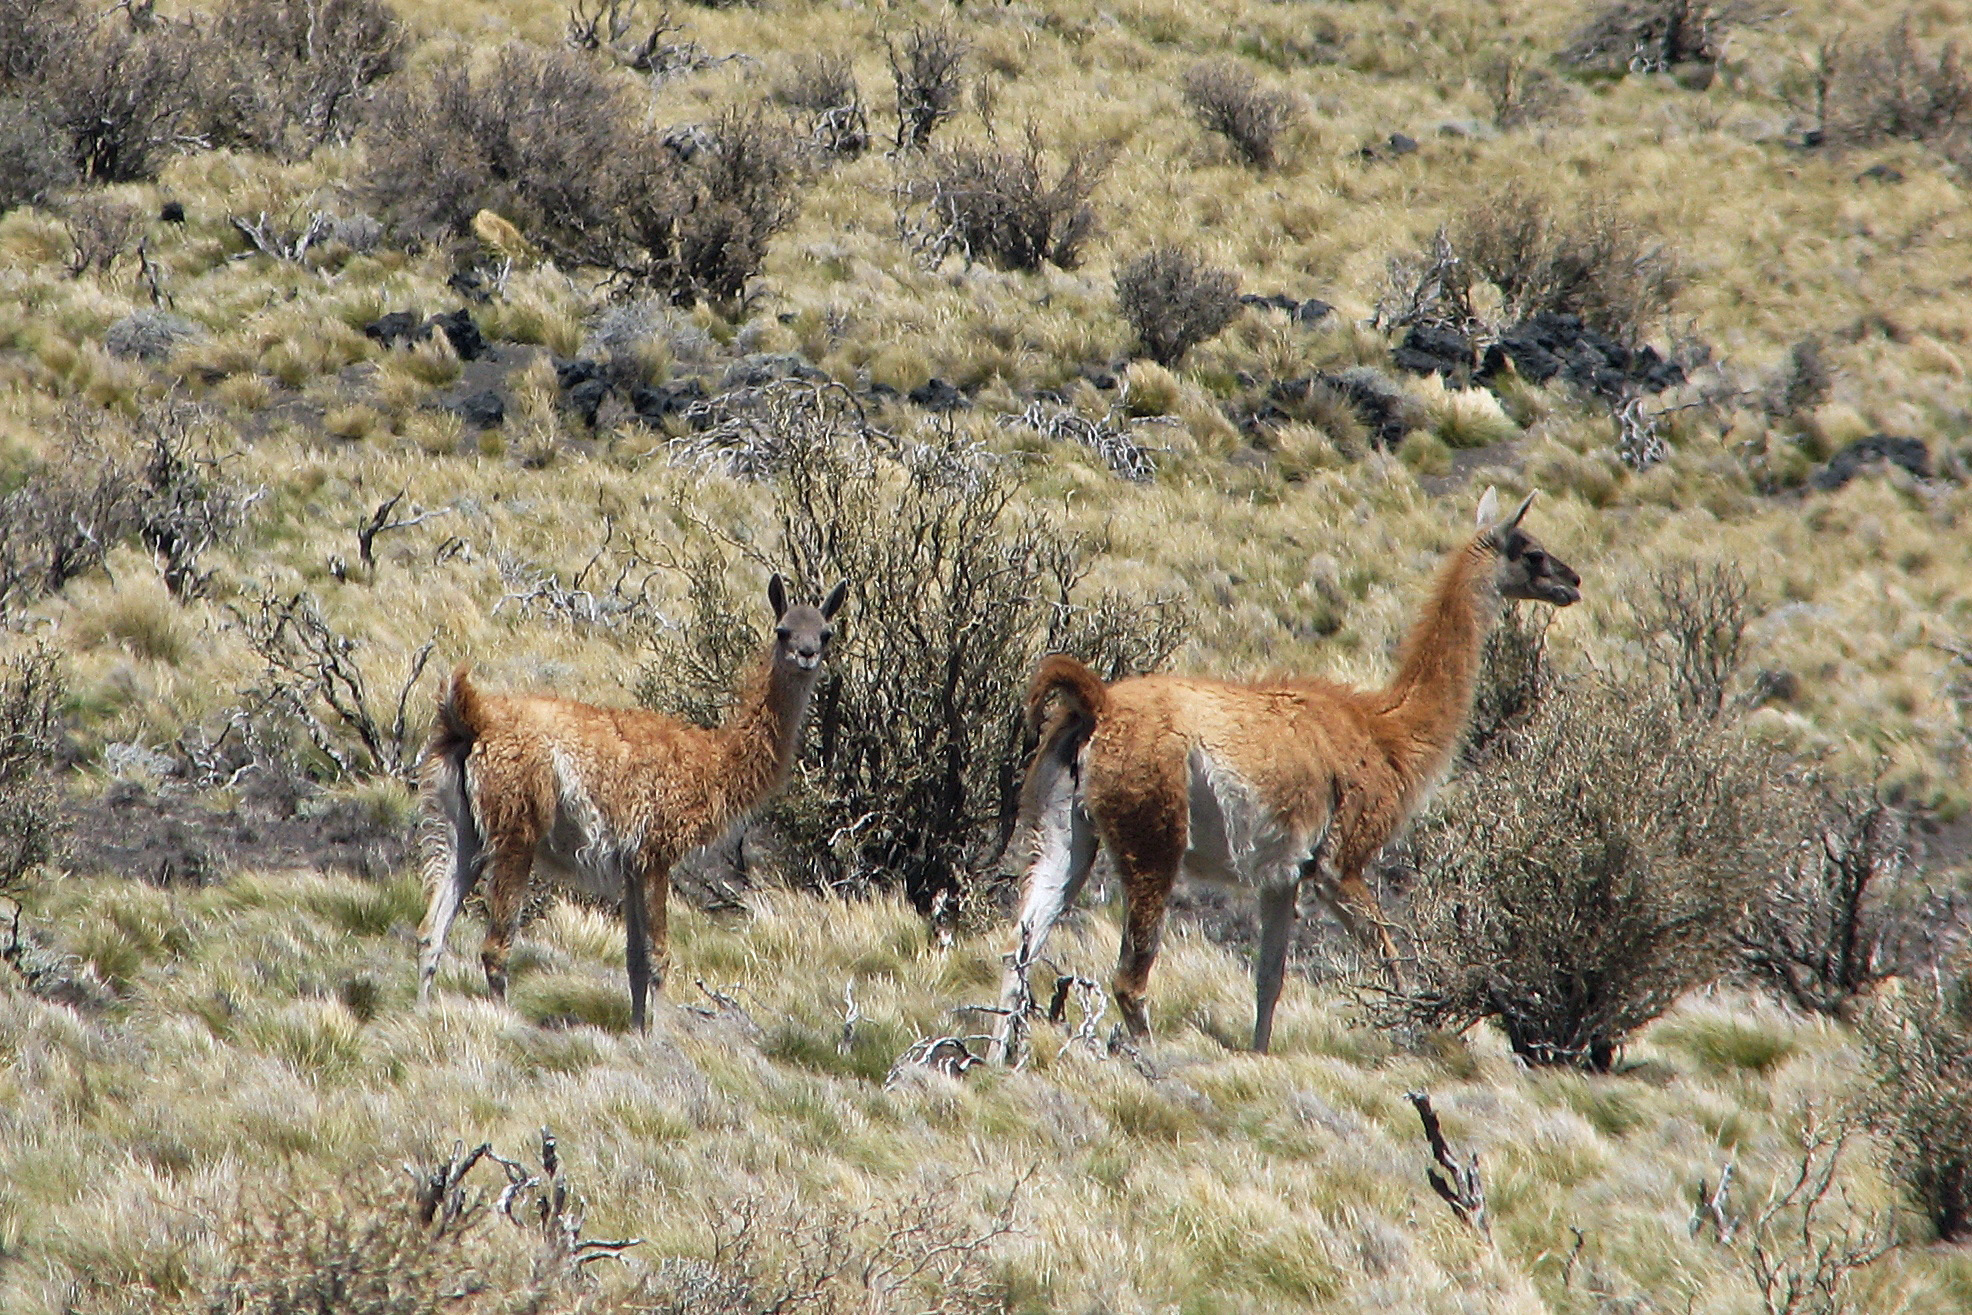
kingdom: Animalia
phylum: Chordata
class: Mammalia
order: Artiodactyla
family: Camelidae
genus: Lama
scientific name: Lama glama
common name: Llama
